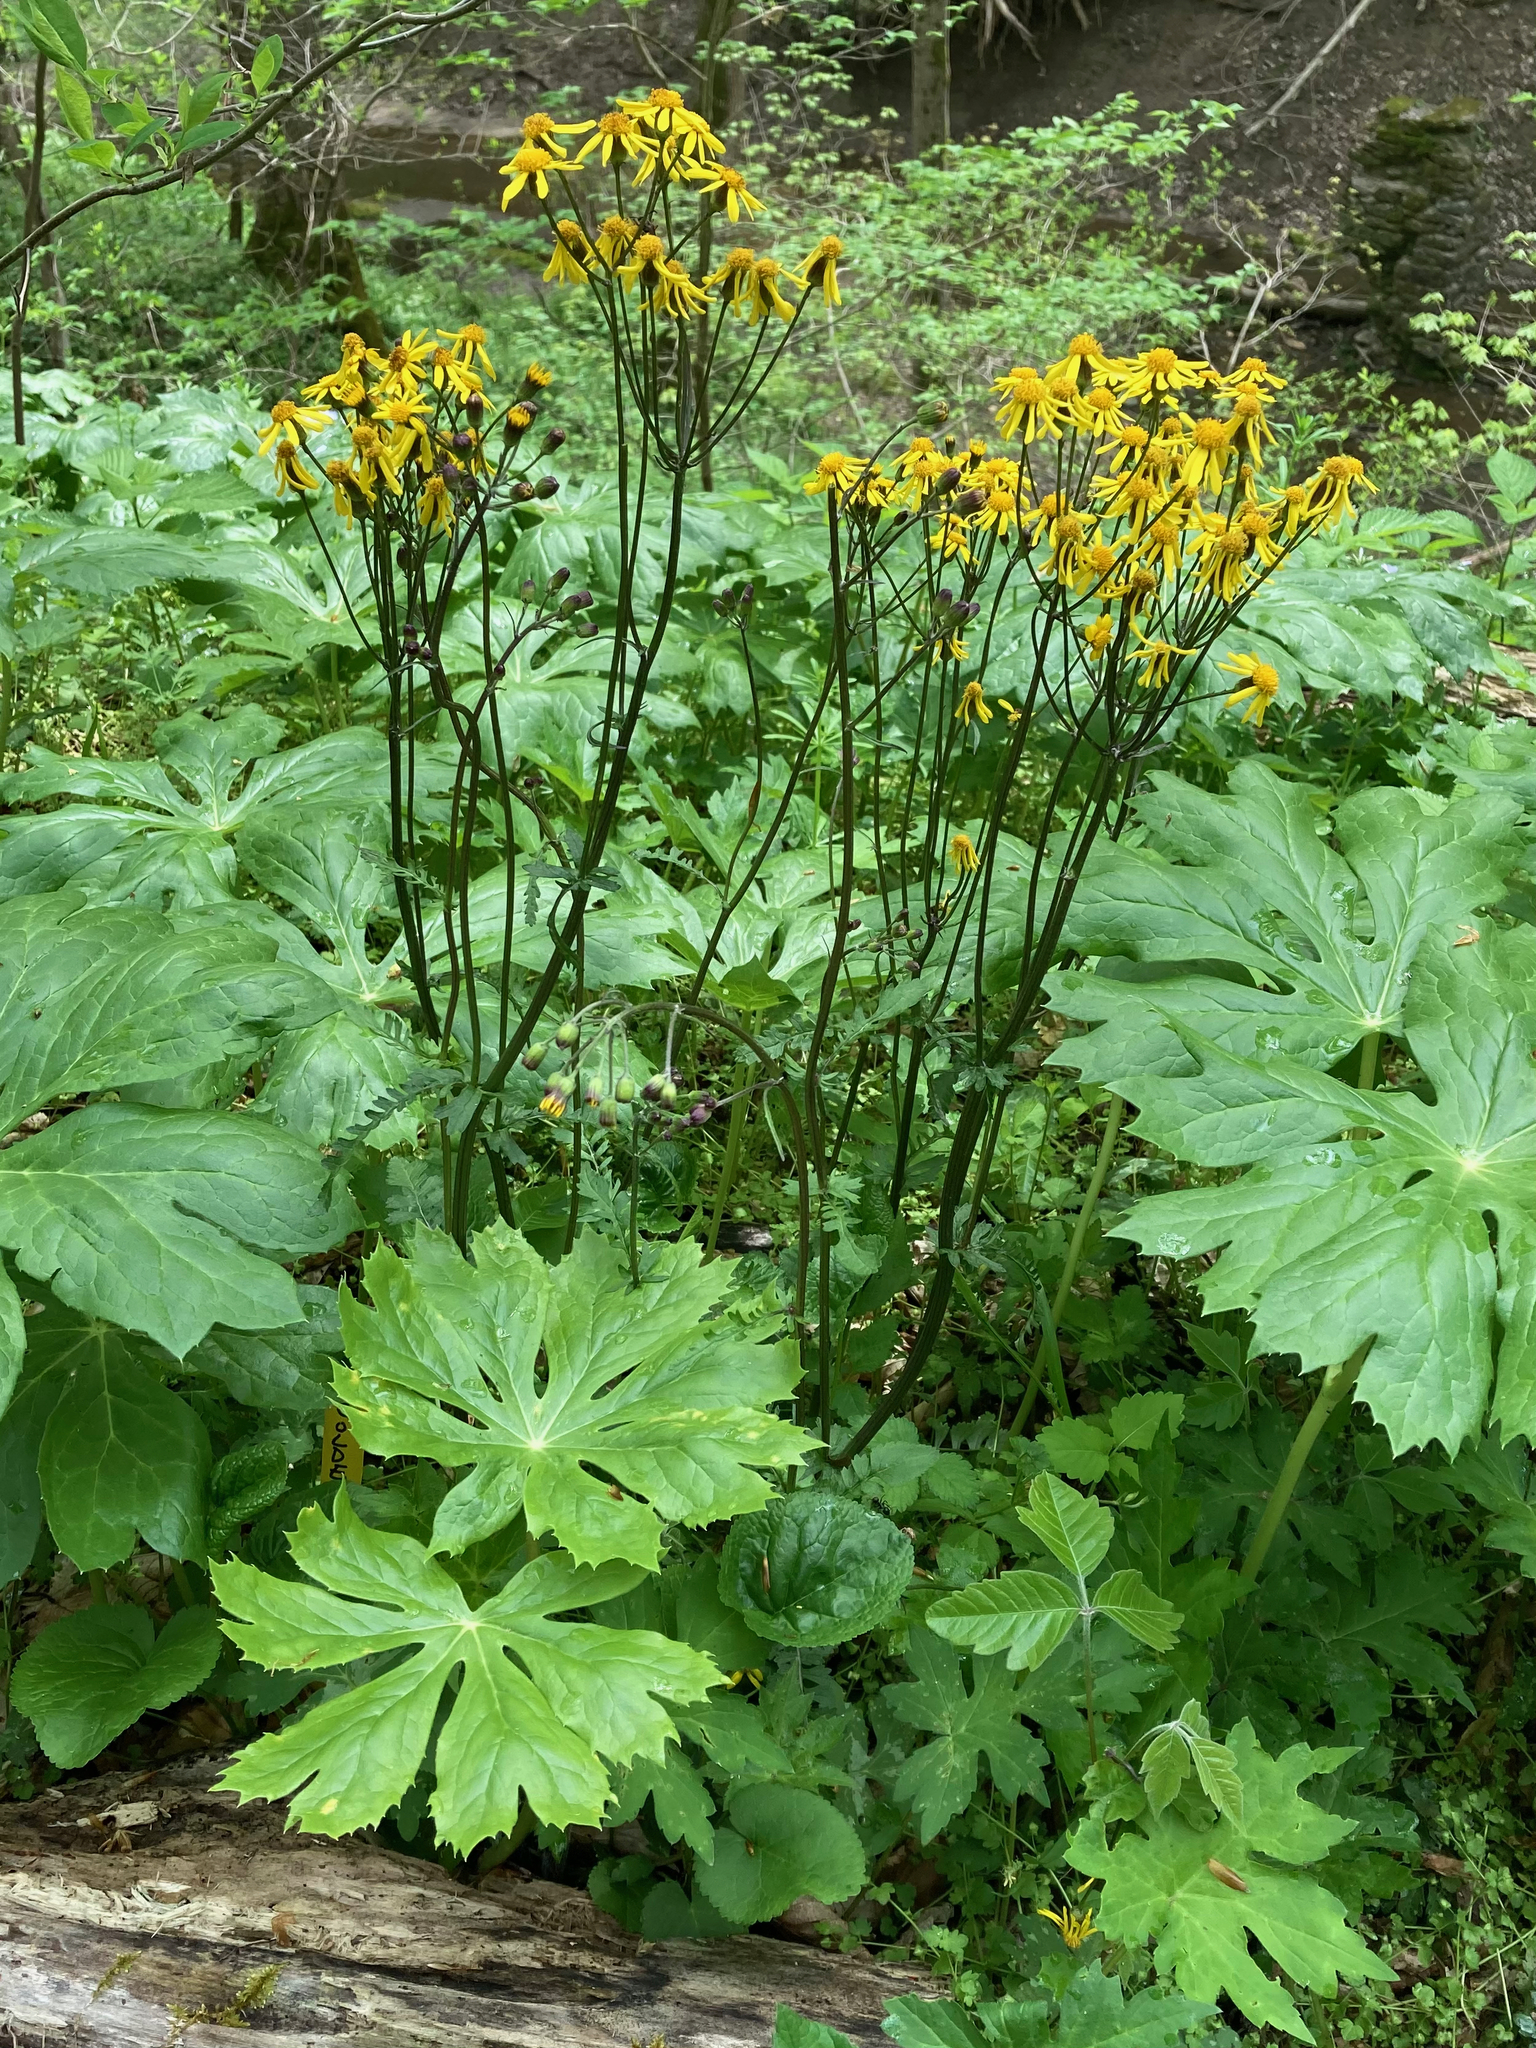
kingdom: Plantae
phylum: Tracheophyta
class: Magnoliopsida
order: Asterales
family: Asteraceae
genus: Packera
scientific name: Packera aurea
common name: Golden groundsel
